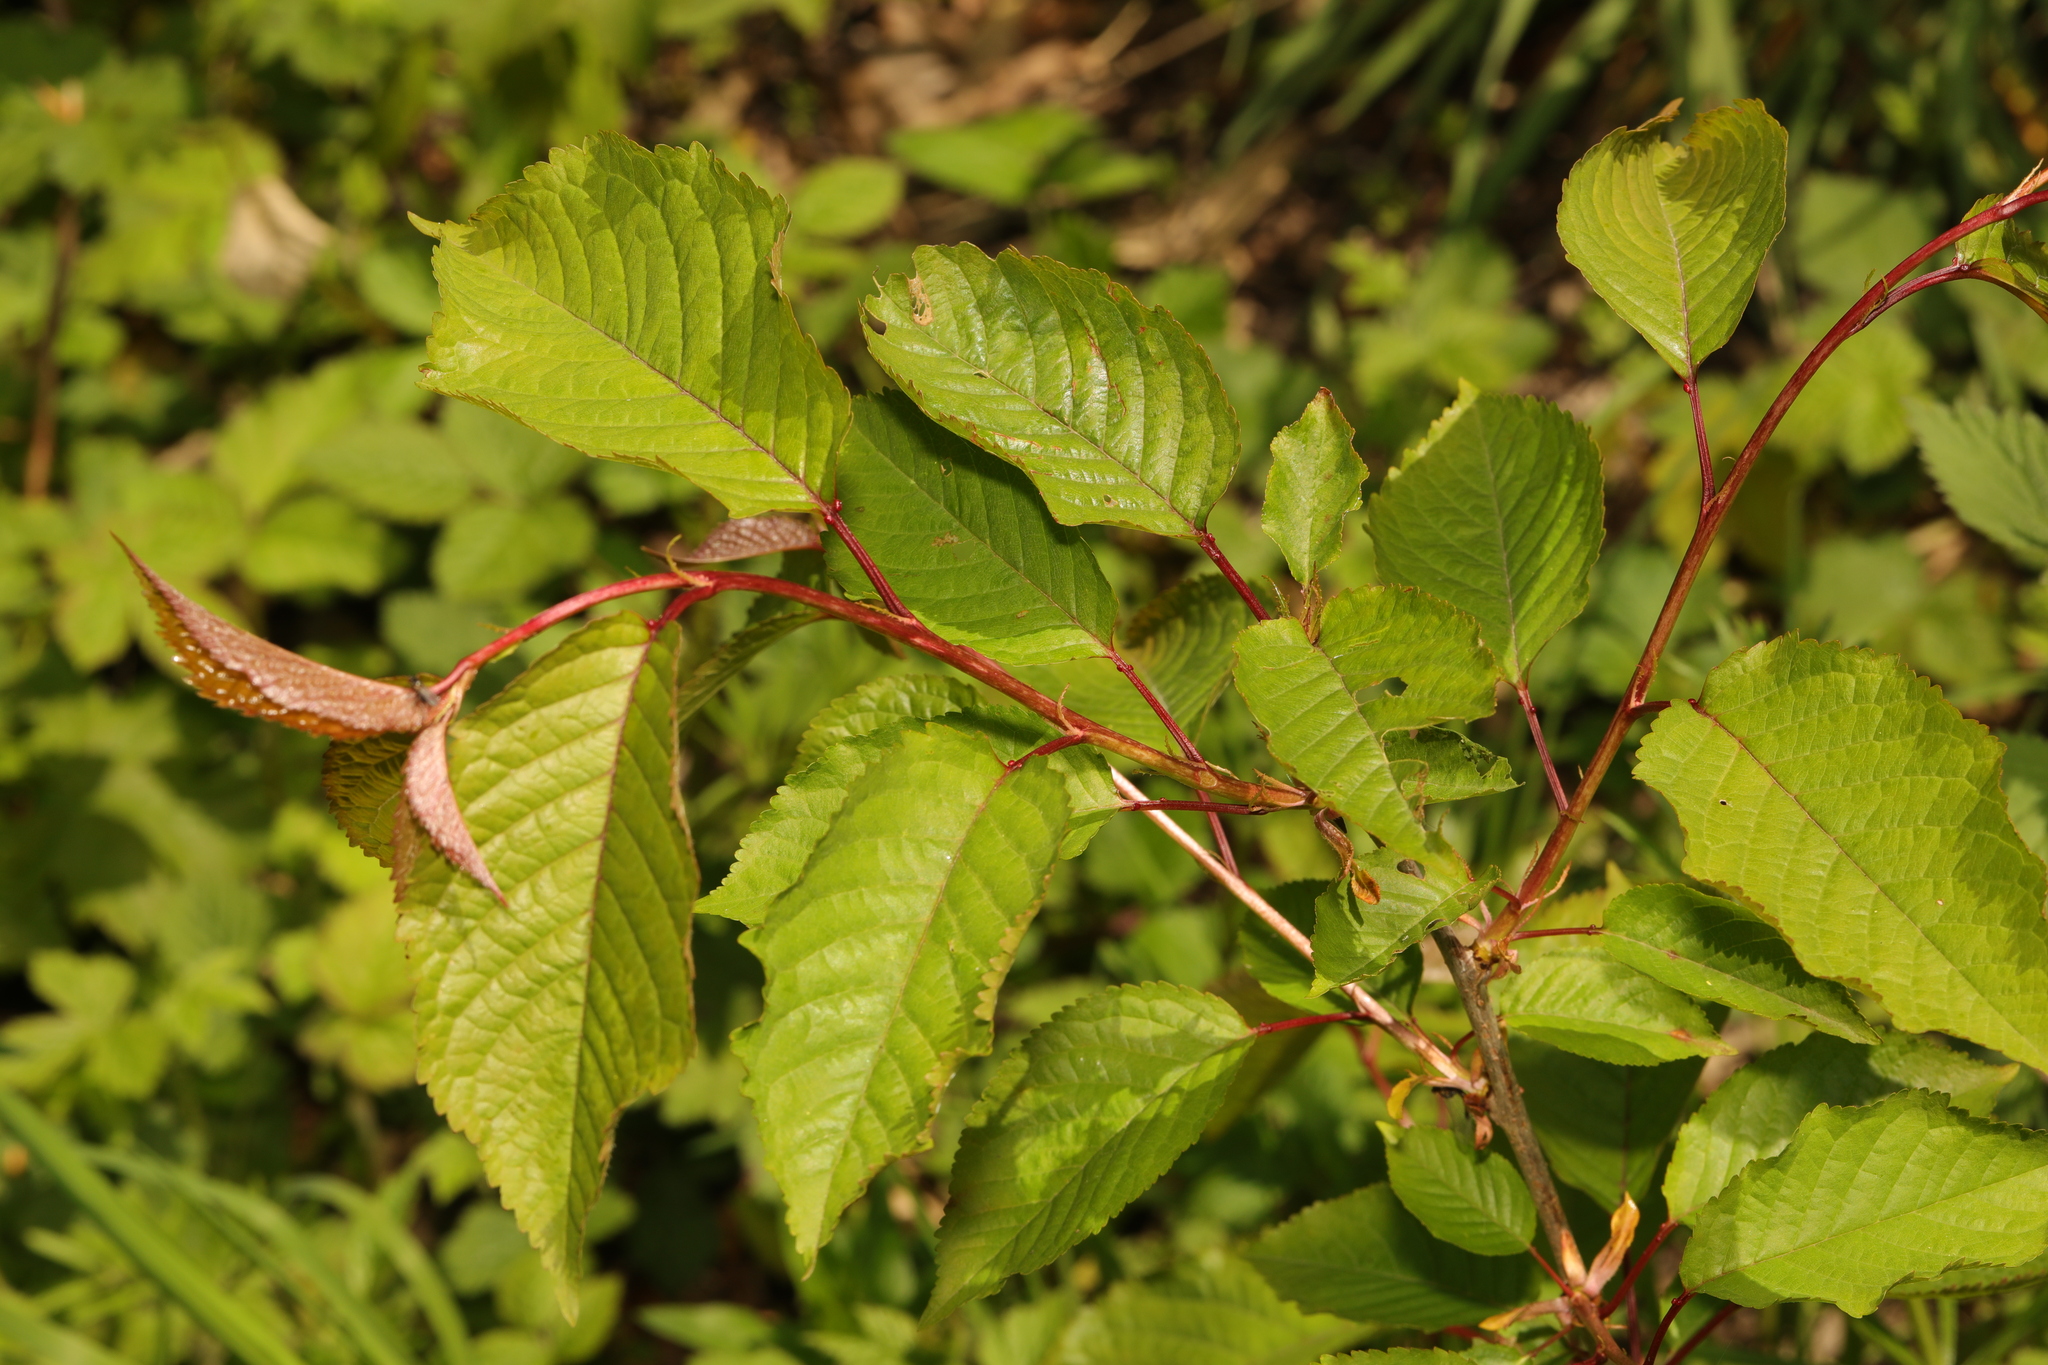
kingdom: Plantae
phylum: Tracheophyta
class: Magnoliopsida
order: Rosales
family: Rosaceae
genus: Prunus
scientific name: Prunus avium
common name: Sweet cherry
